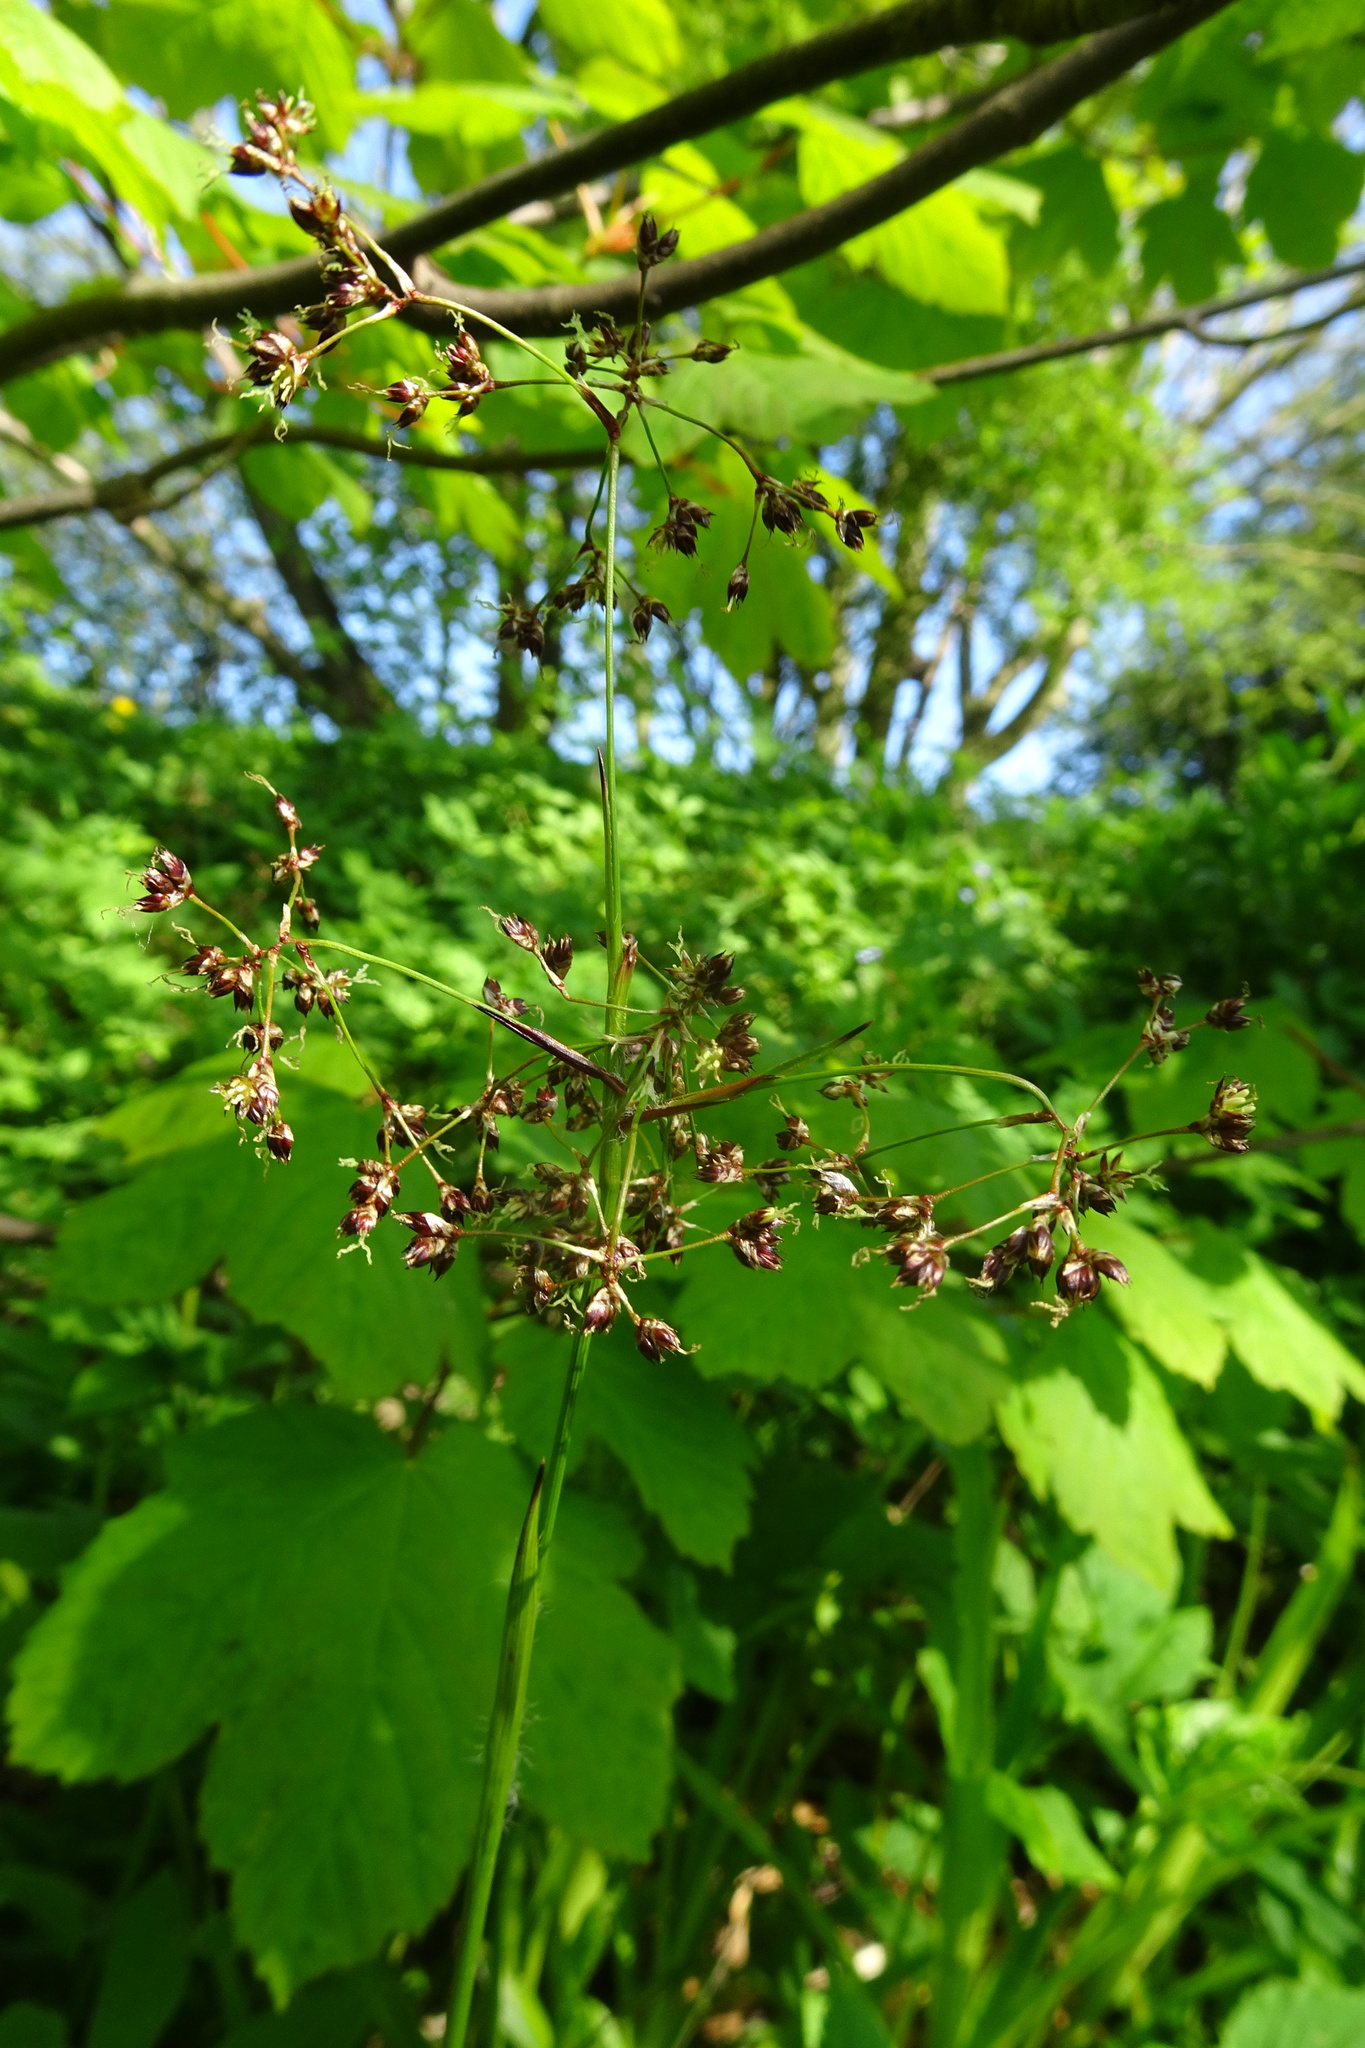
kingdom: Plantae
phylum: Tracheophyta
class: Liliopsida
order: Poales
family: Juncaceae
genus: Luzula
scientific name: Luzula sylvatica
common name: Great wood-rush
